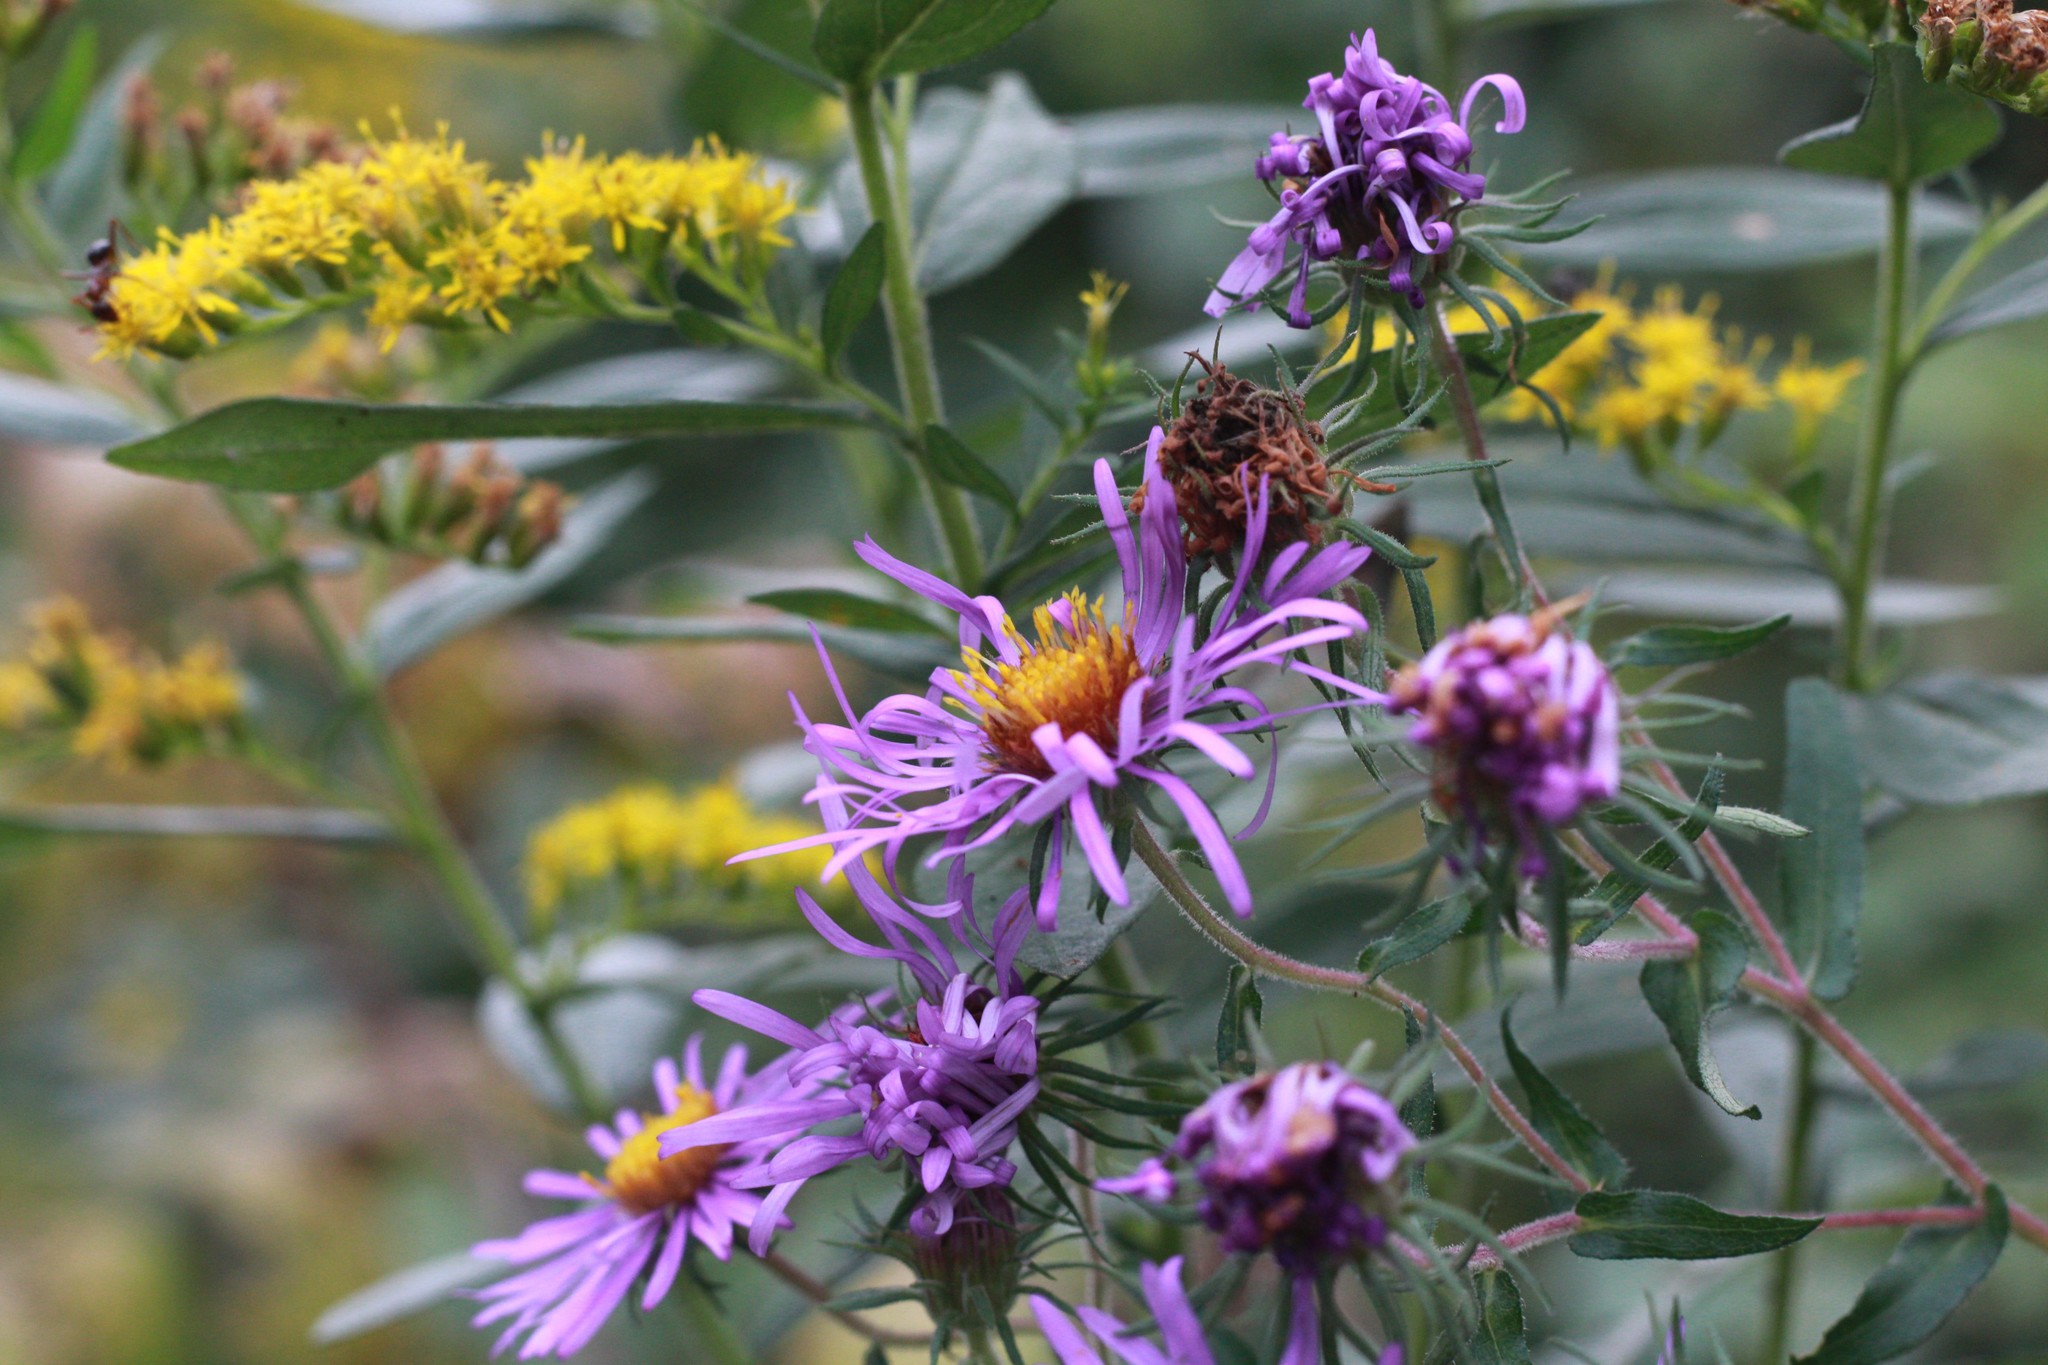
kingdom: Plantae
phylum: Tracheophyta
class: Magnoliopsida
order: Asterales
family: Asteraceae
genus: Symphyotrichum
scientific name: Symphyotrichum novae-angliae
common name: Michaelmas daisy
